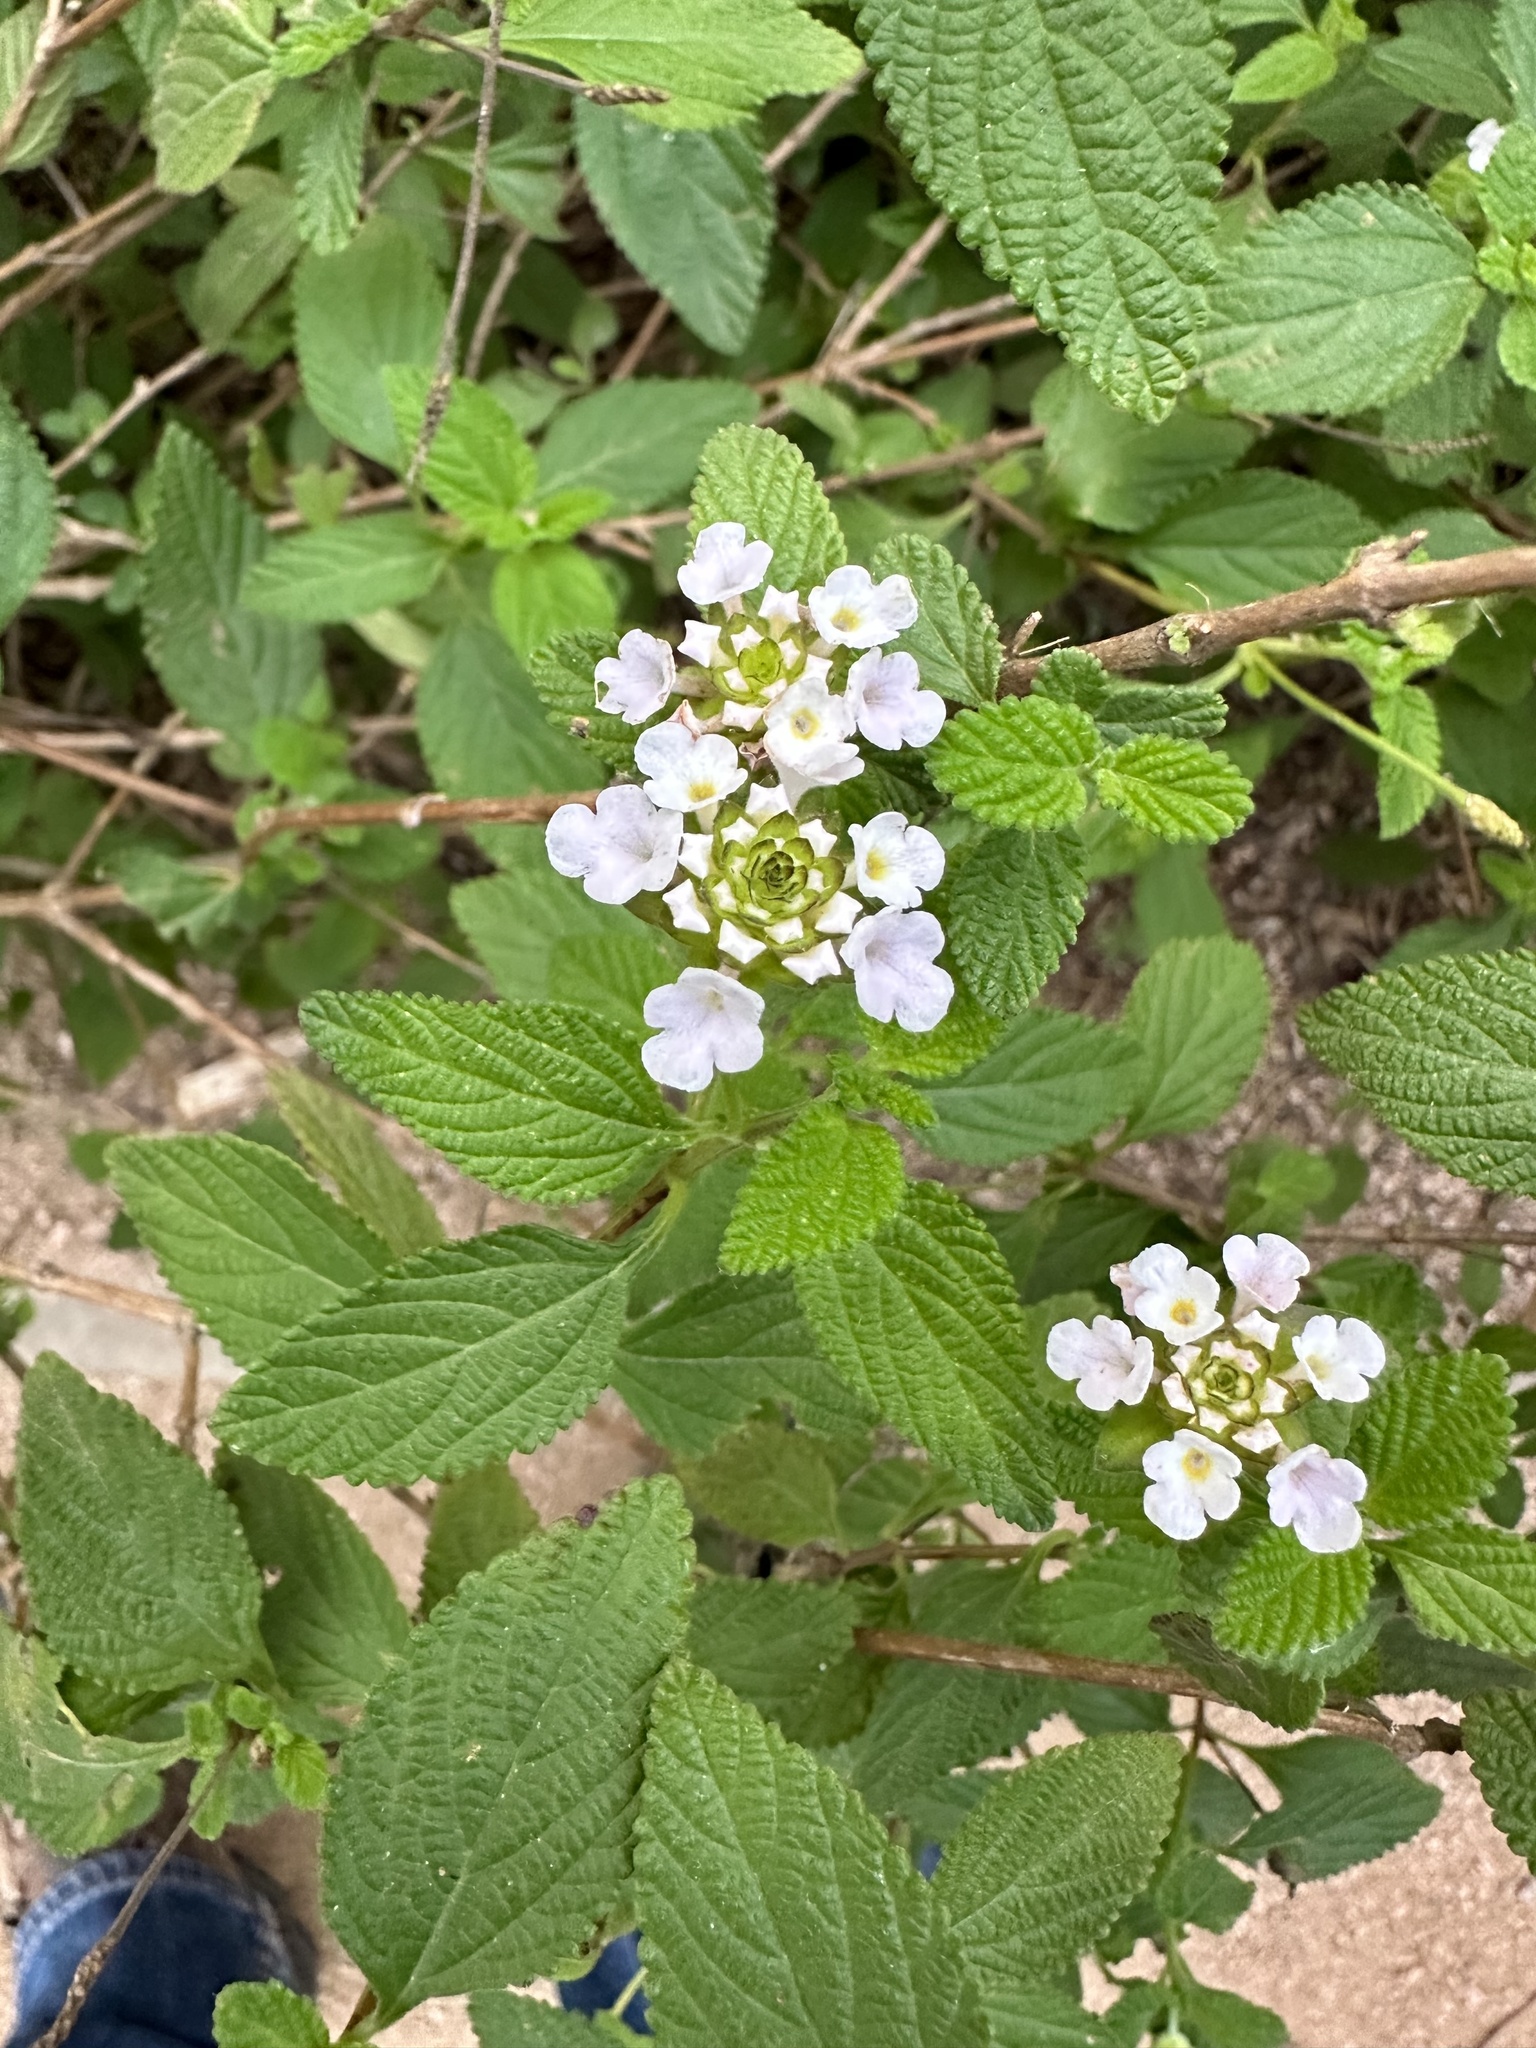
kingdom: Plantae
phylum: Tracheophyta
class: Magnoliopsida
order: Lamiales
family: Verbenaceae
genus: Lantana
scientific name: Lantana velutina
